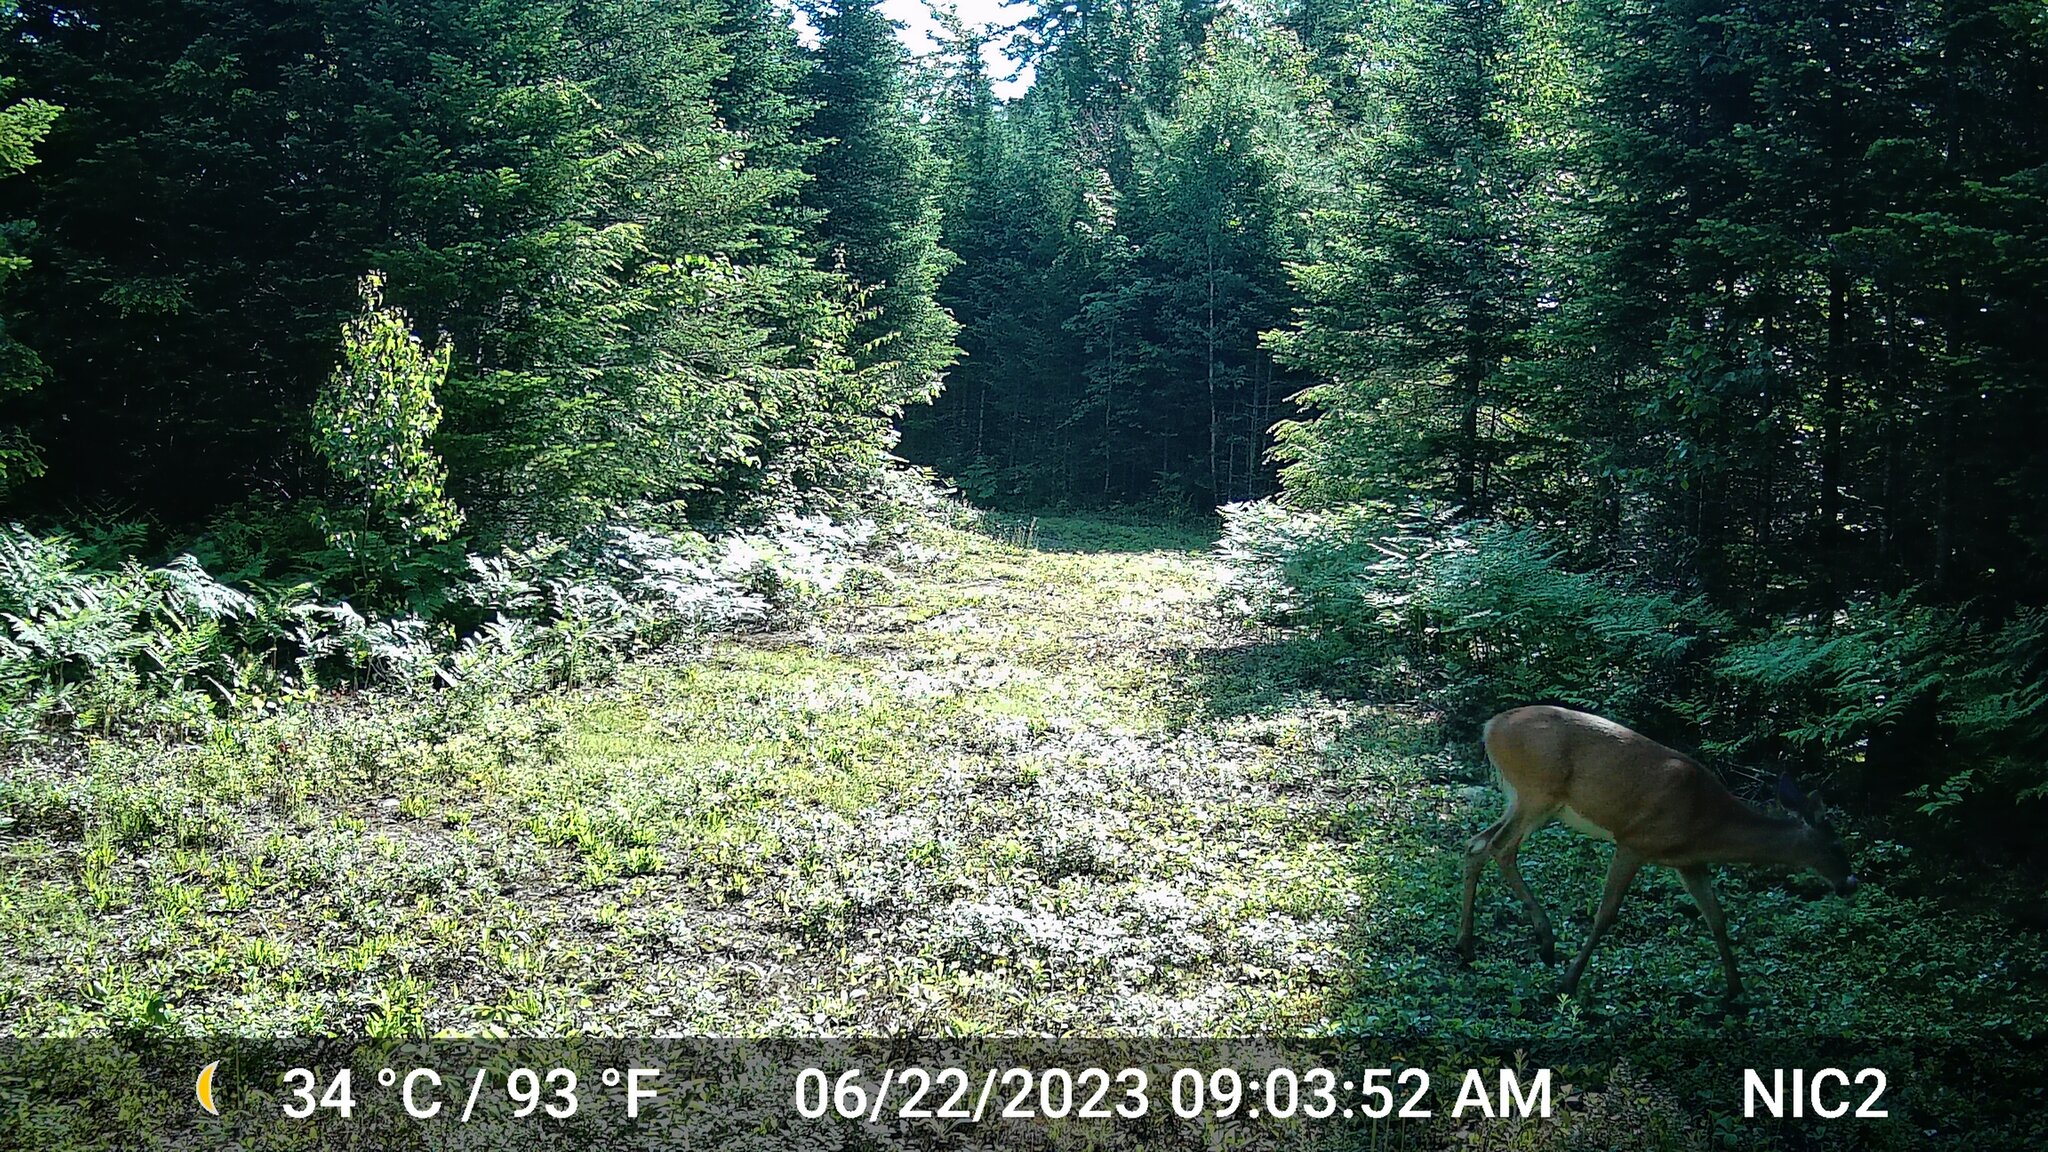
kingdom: Animalia
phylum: Chordata
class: Mammalia
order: Artiodactyla
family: Cervidae
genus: Odocoileus
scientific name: Odocoileus virginianus
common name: White-tailed deer
